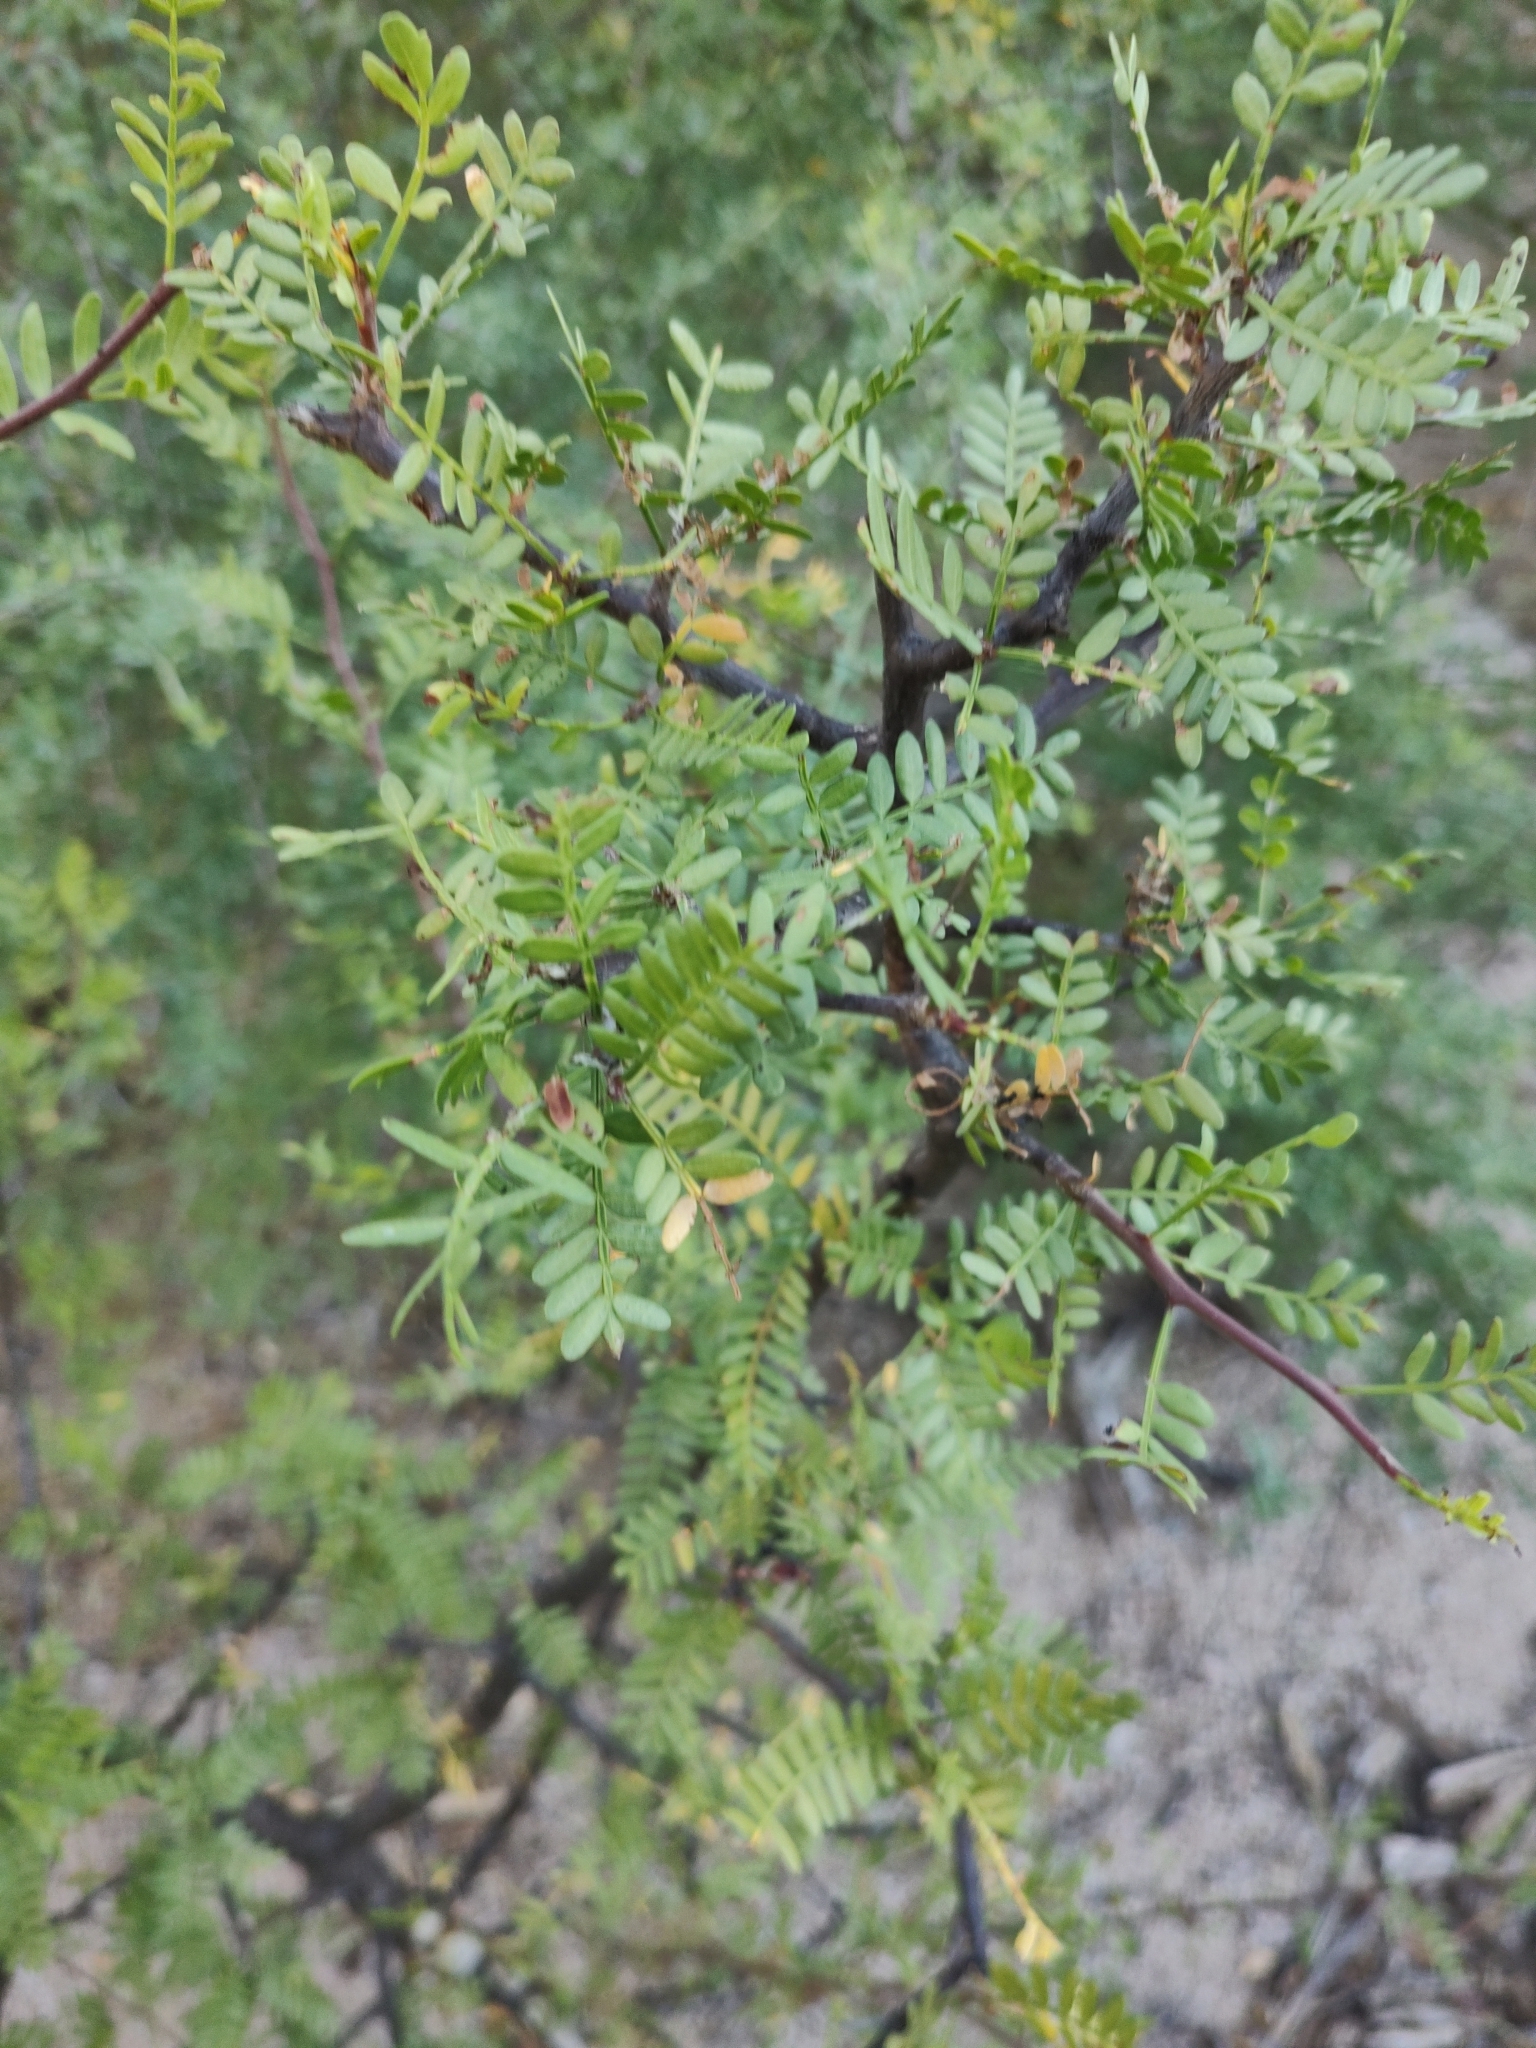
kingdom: Plantae
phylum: Tracheophyta
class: Magnoliopsida
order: Sapindales
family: Burseraceae
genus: Bursera
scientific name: Bursera microphylla
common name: Elephant tree
